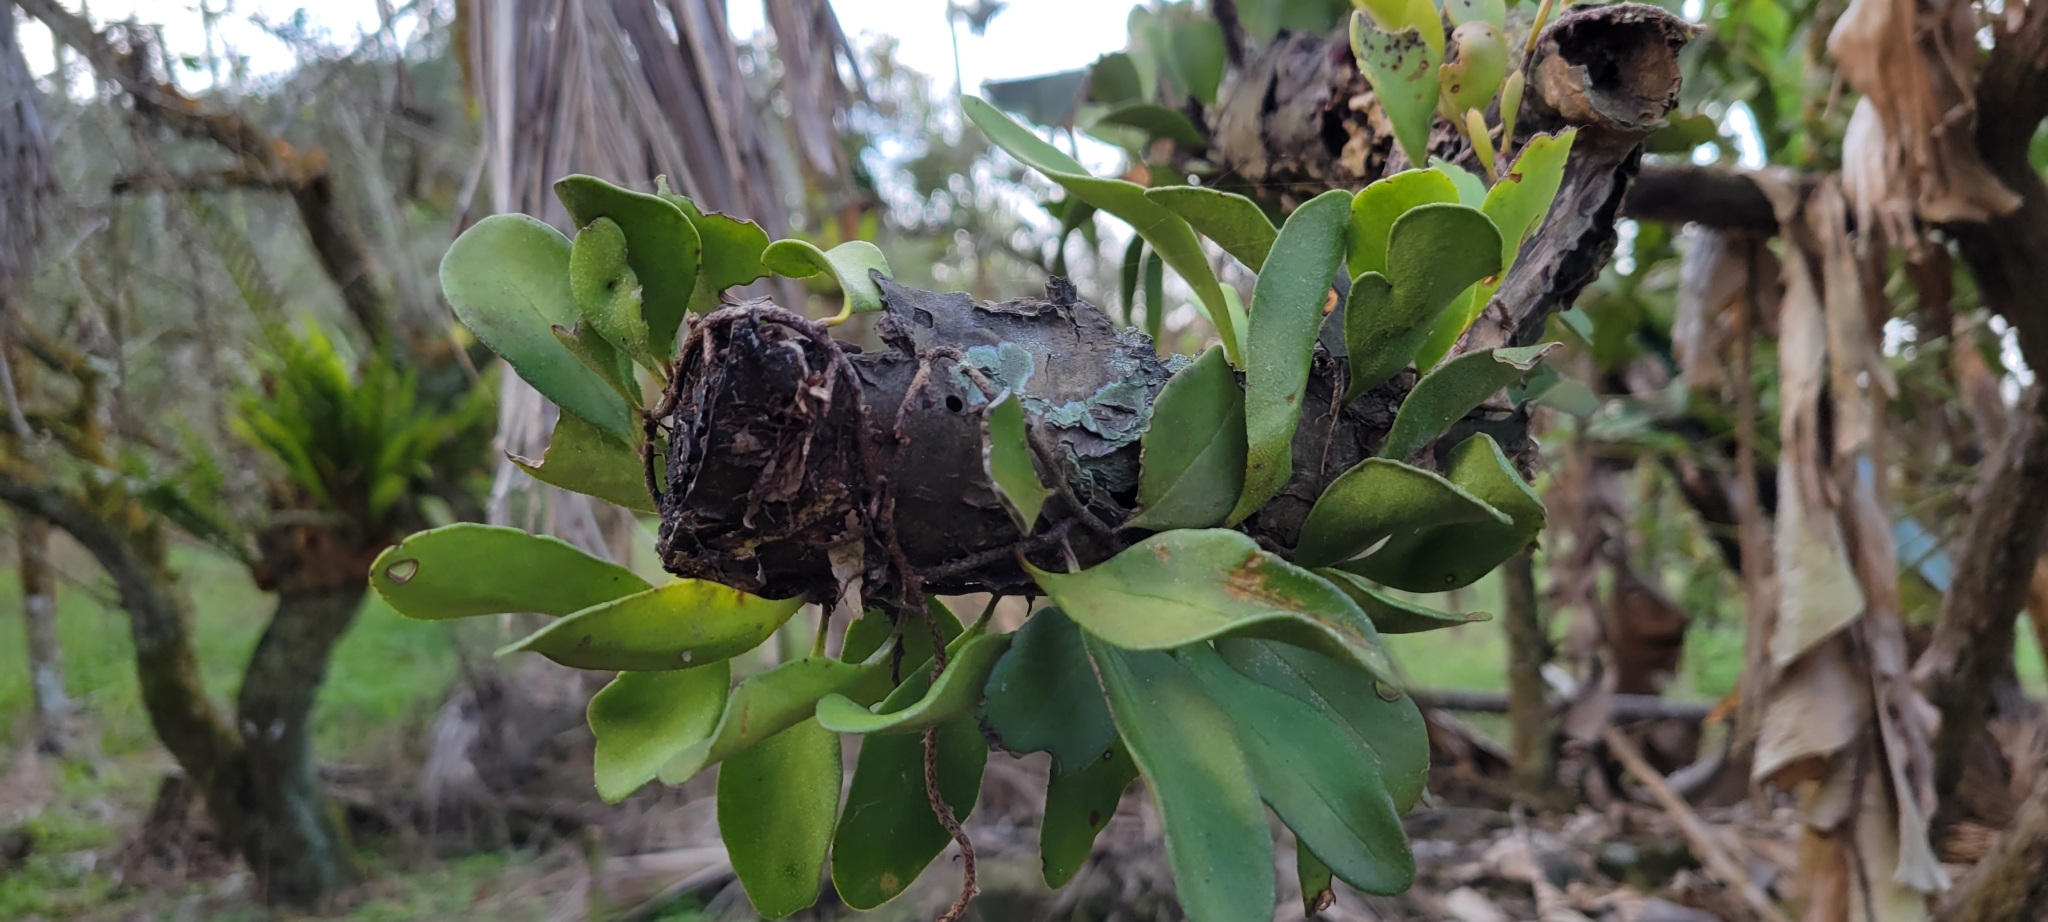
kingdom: Plantae
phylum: Tracheophyta
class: Polypodiopsida
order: Polypodiales
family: Polypodiaceae
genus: Pyrrosia
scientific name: Pyrrosia lanceolata
